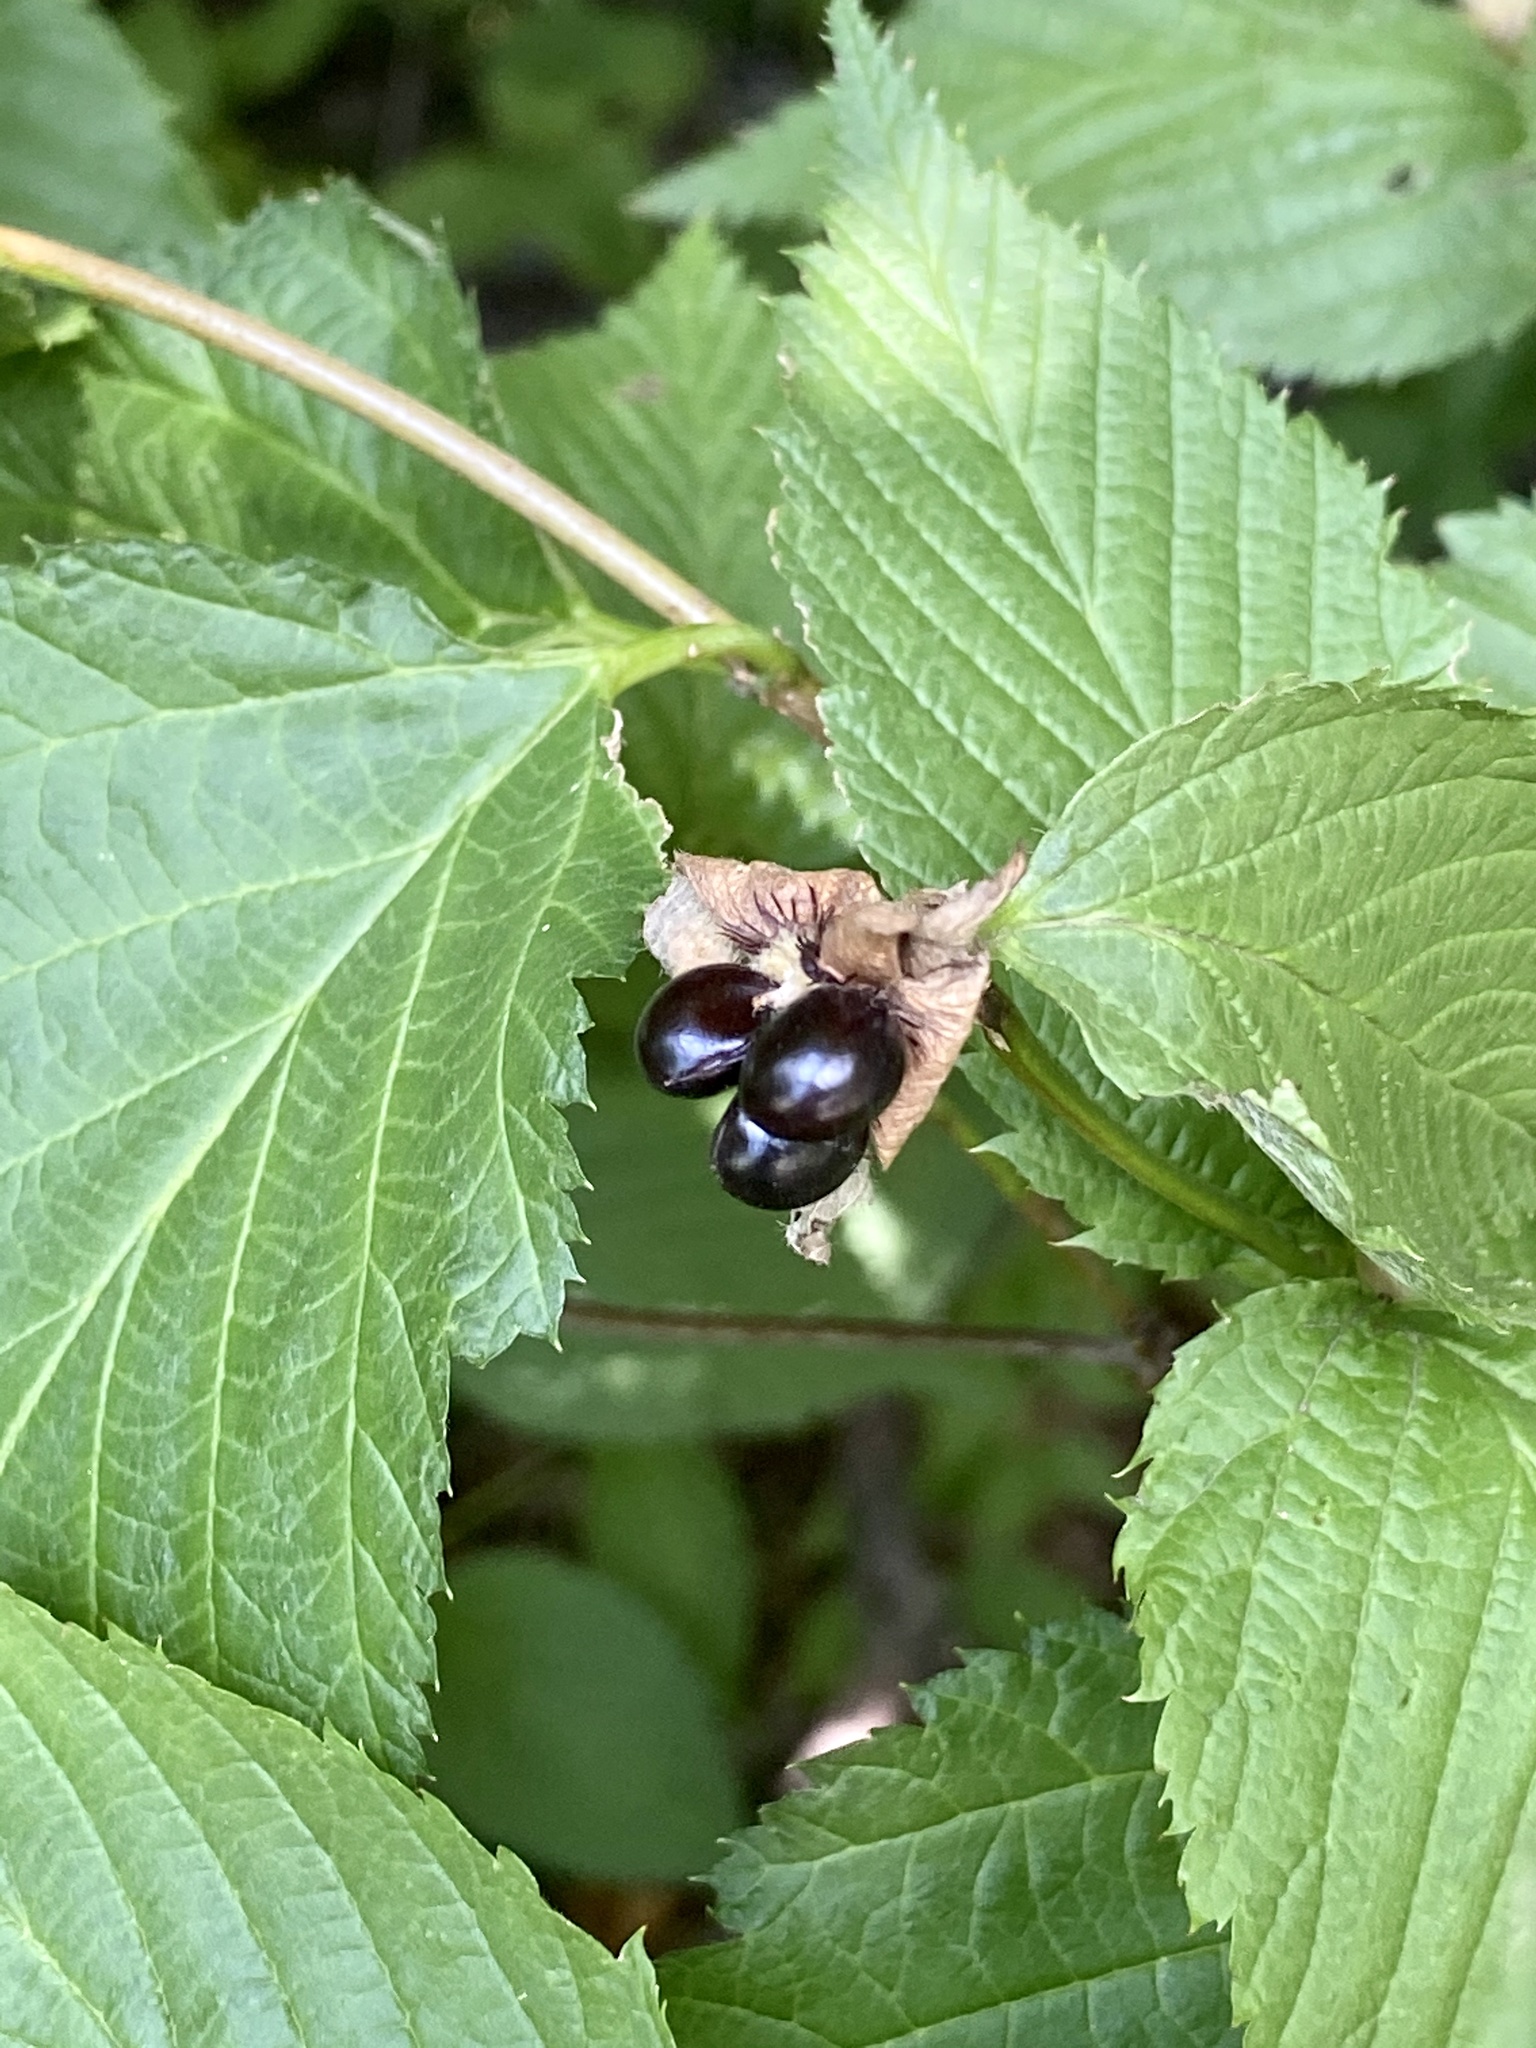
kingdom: Plantae
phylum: Tracheophyta
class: Magnoliopsida
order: Rosales
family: Rosaceae
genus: Rhodotypos
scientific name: Rhodotypos scandens
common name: Jetbead
